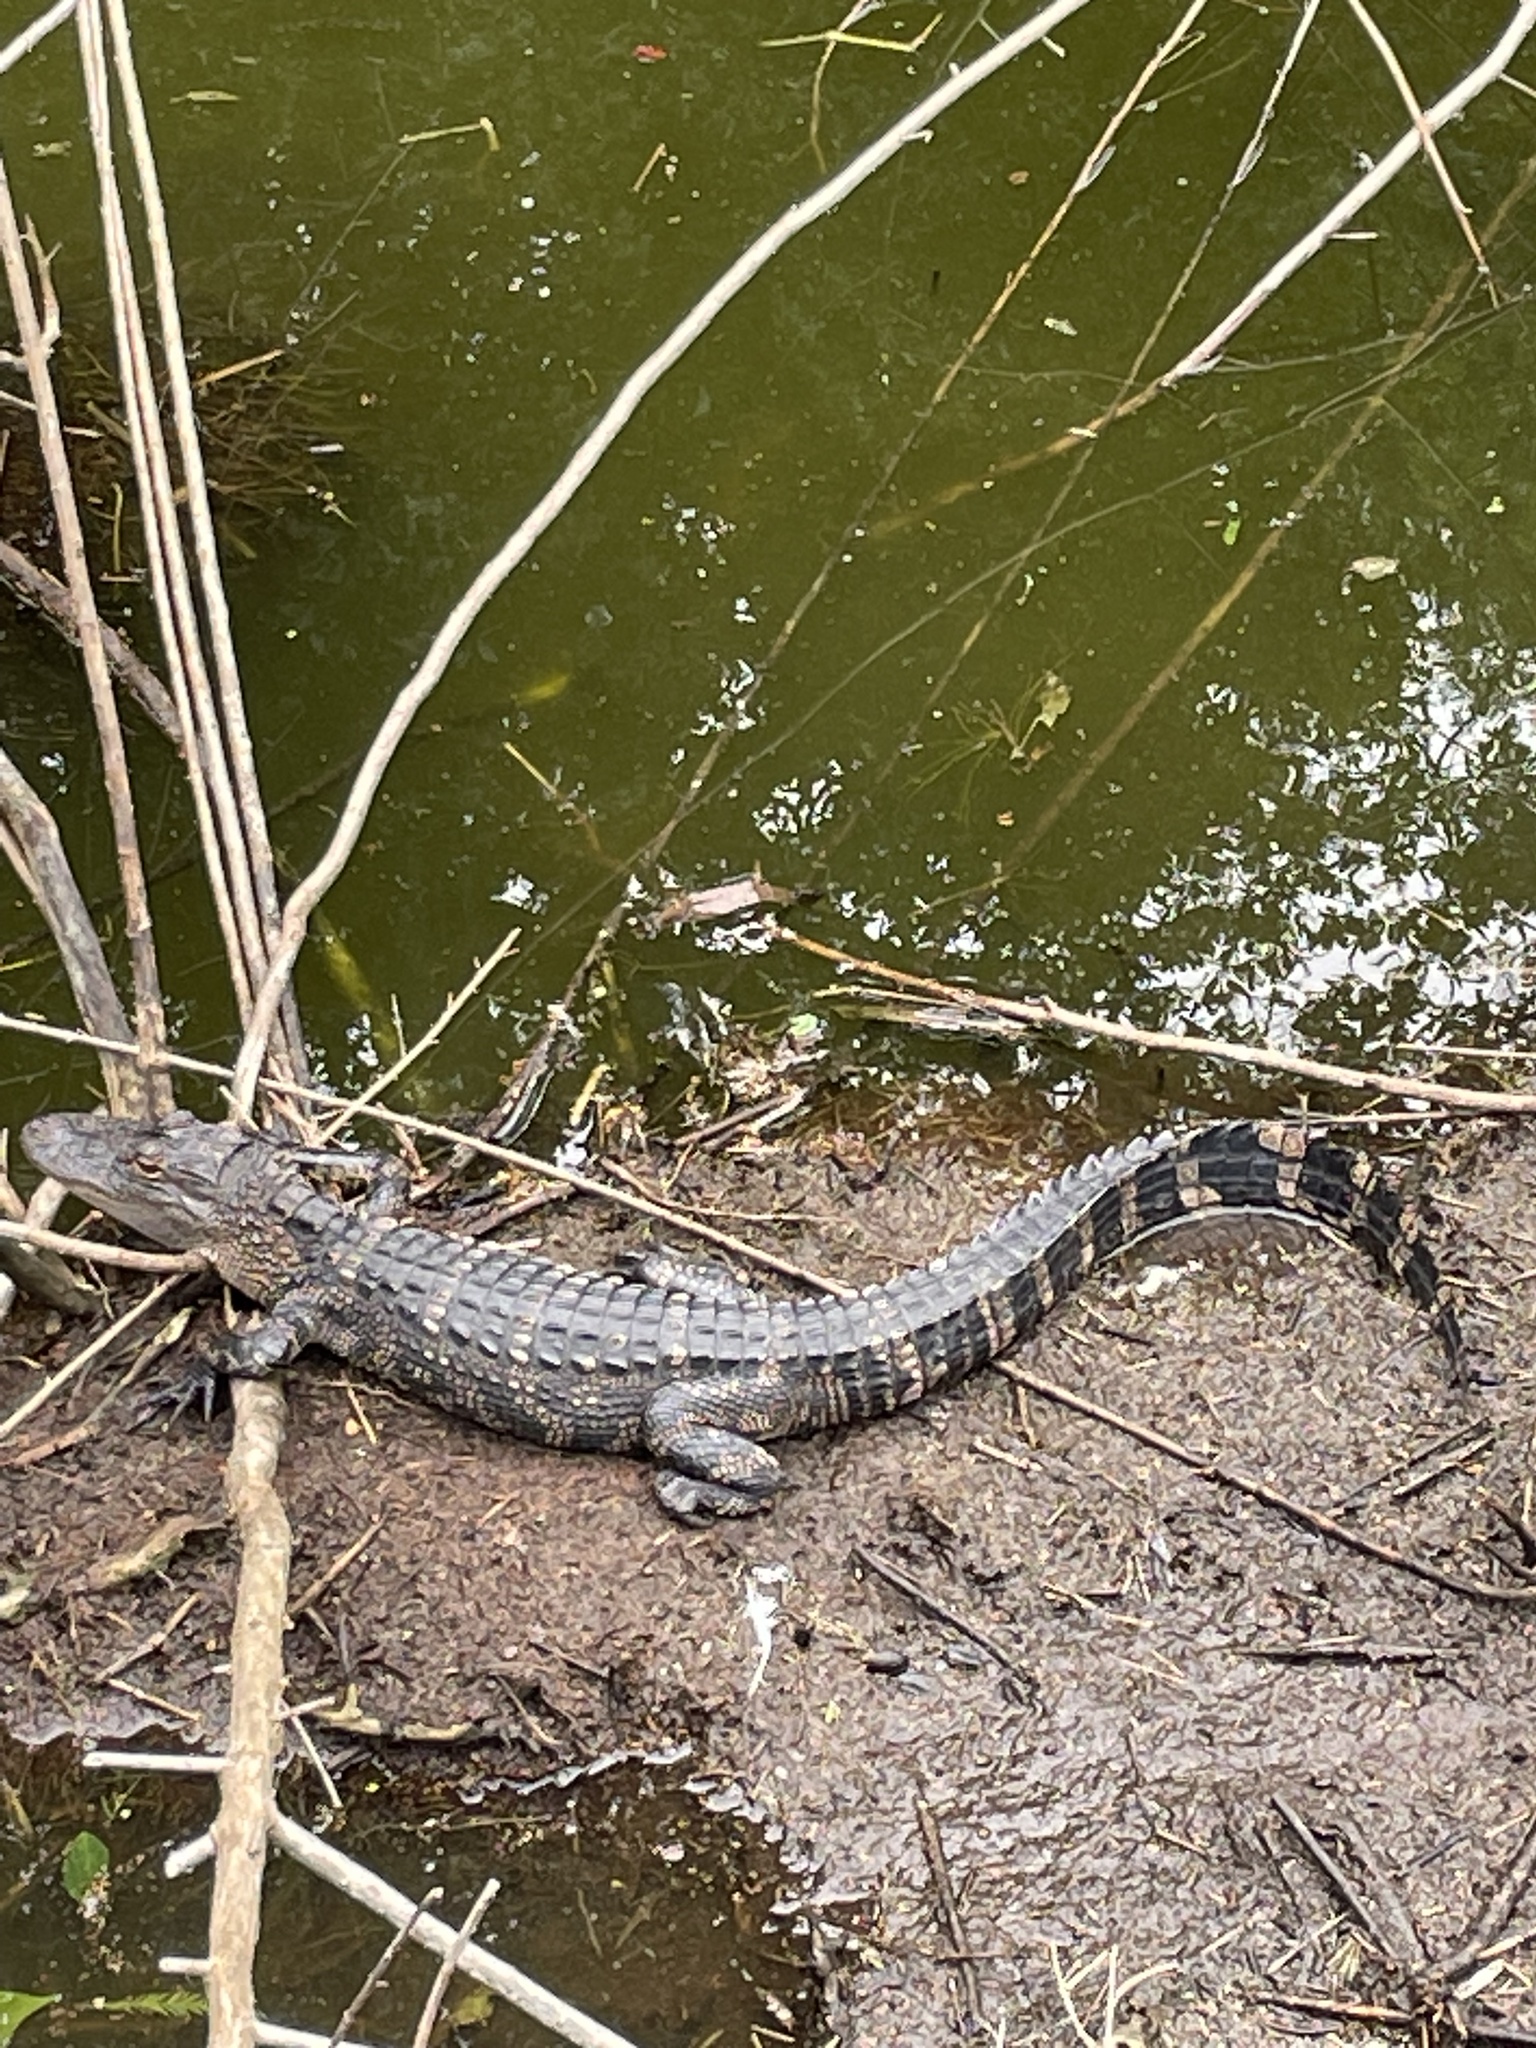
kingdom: Animalia
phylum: Chordata
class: Crocodylia
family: Alligatoridae
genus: Alligator
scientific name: Alligator mississippiensis
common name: American alligator
